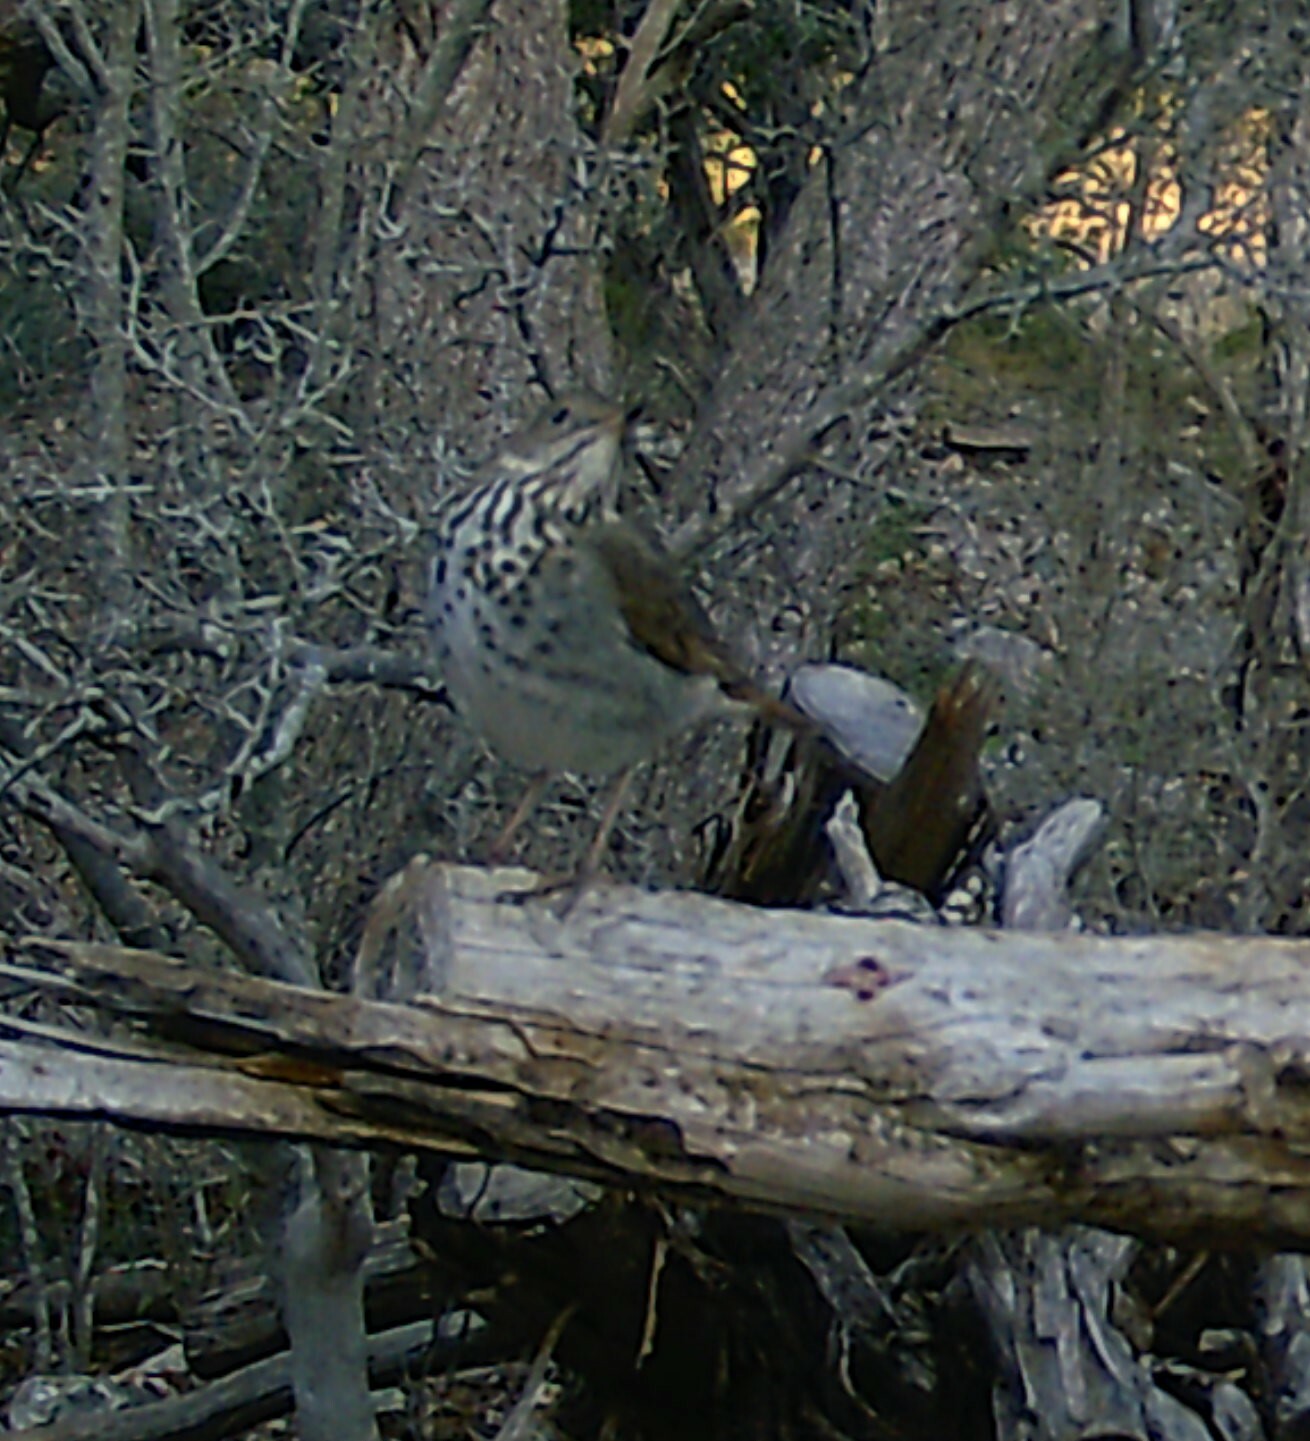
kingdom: Animalia
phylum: Chordata
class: Aves
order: Passeriformes
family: Turdidae
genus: Catharus
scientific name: Catharus guttatus
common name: Hermit thrush
